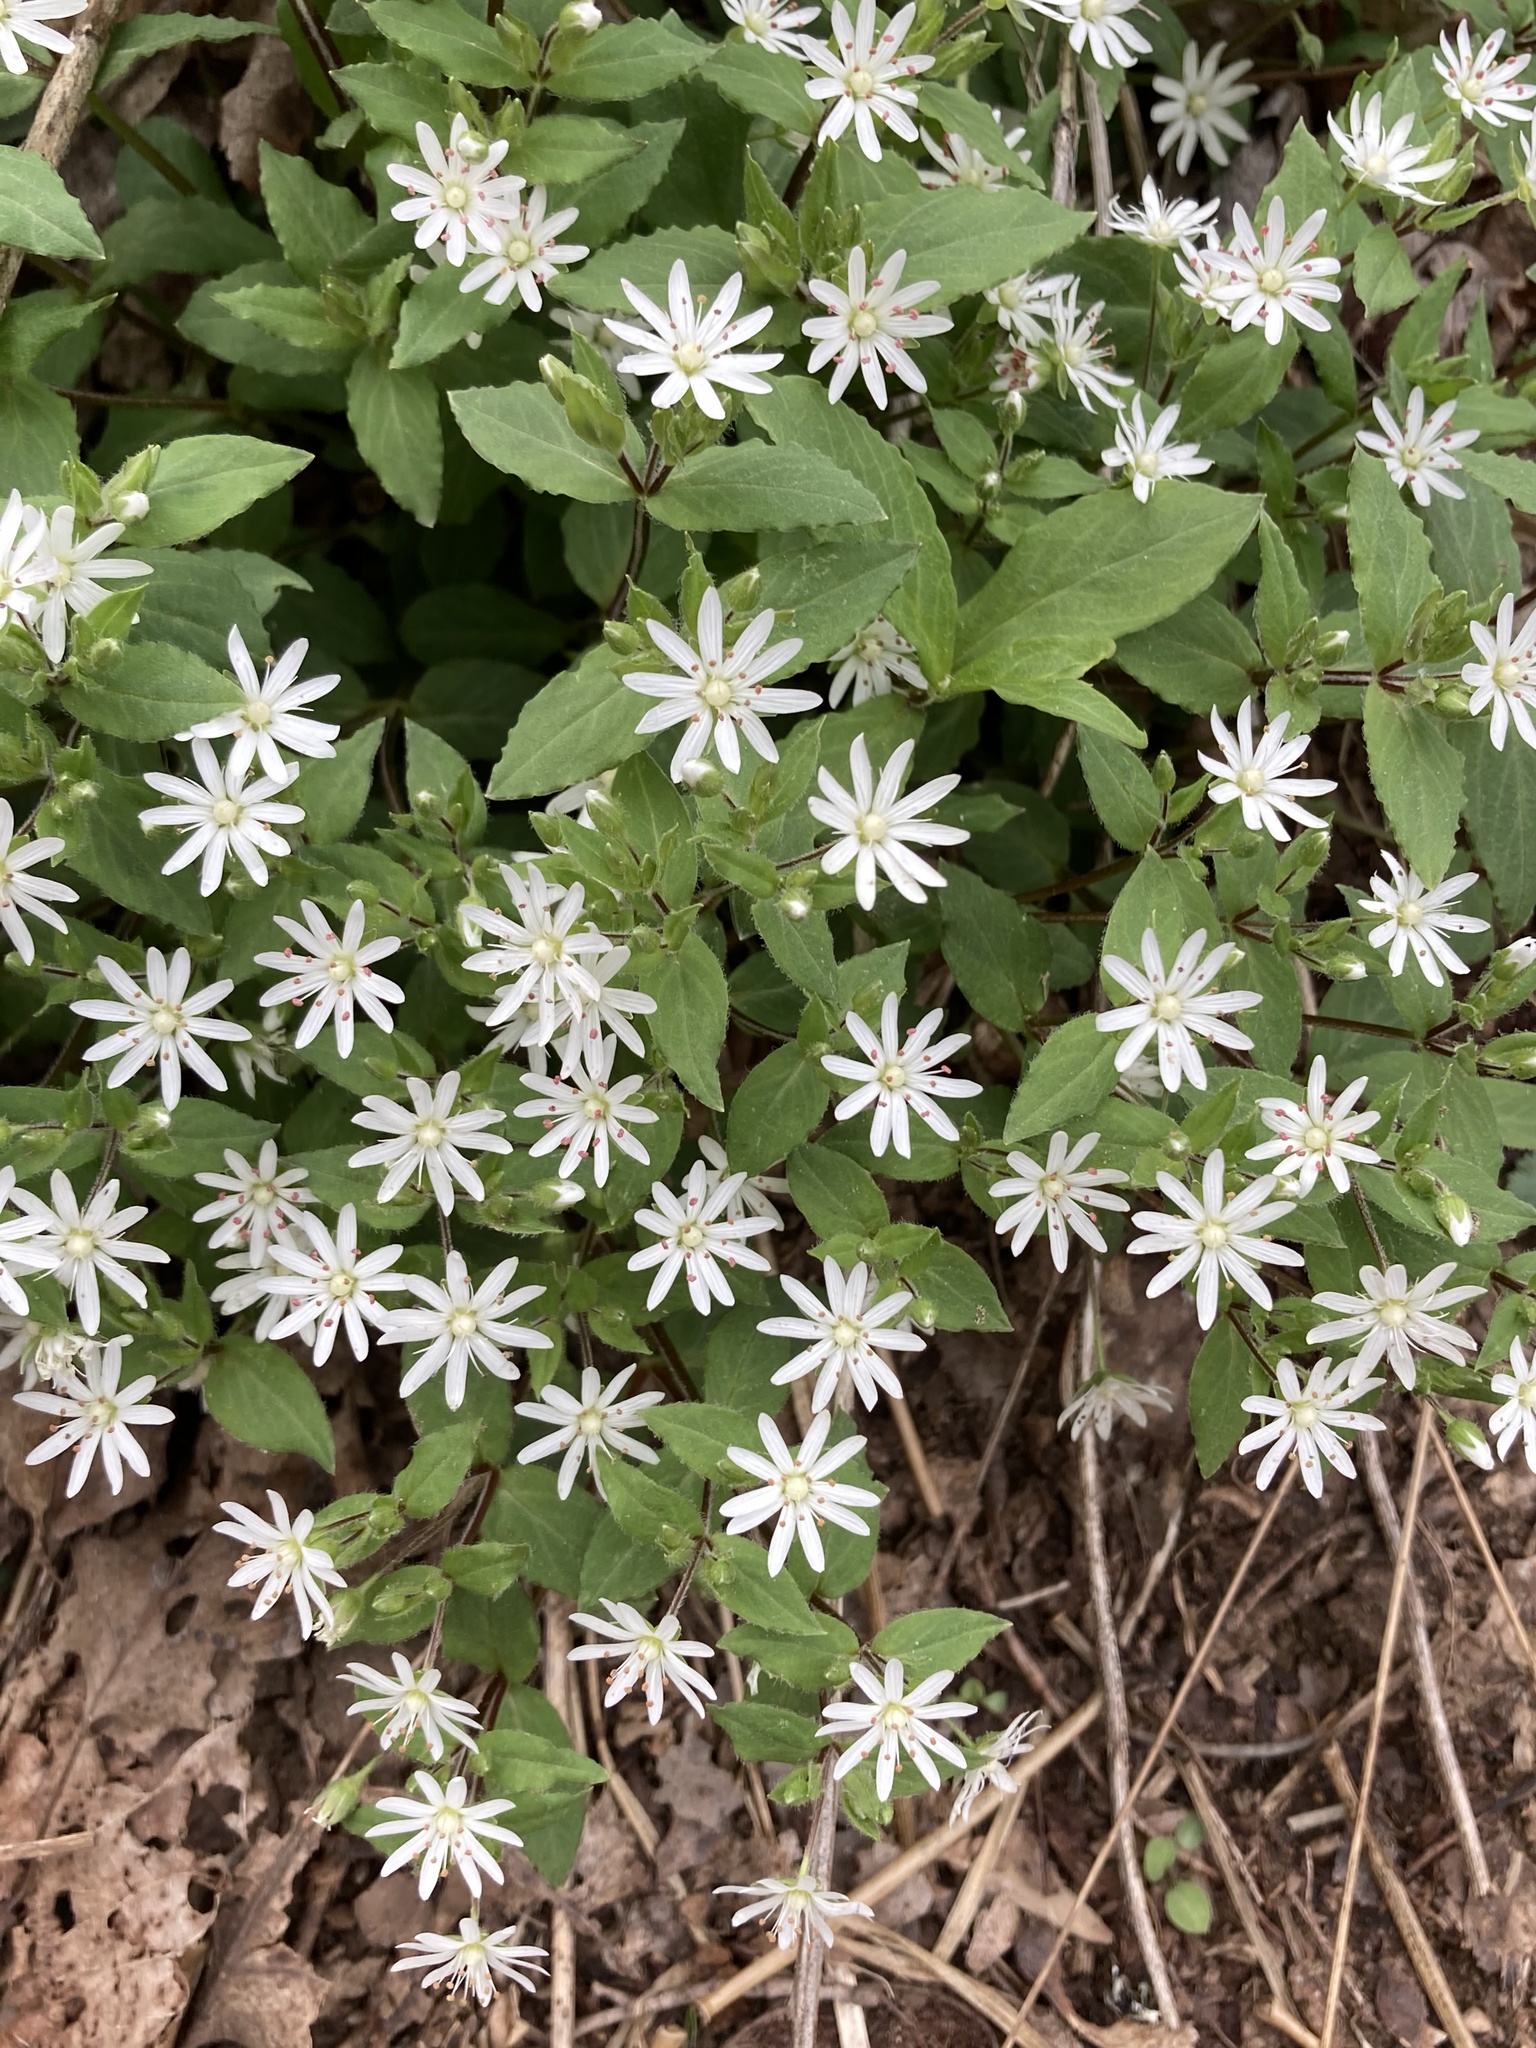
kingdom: Plantae
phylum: Tracheophyta
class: Magnoliopsida
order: Caryophyllales
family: Caryophyllaceae
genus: Stellaria
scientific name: Stellaria pubera
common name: Star chickweed
